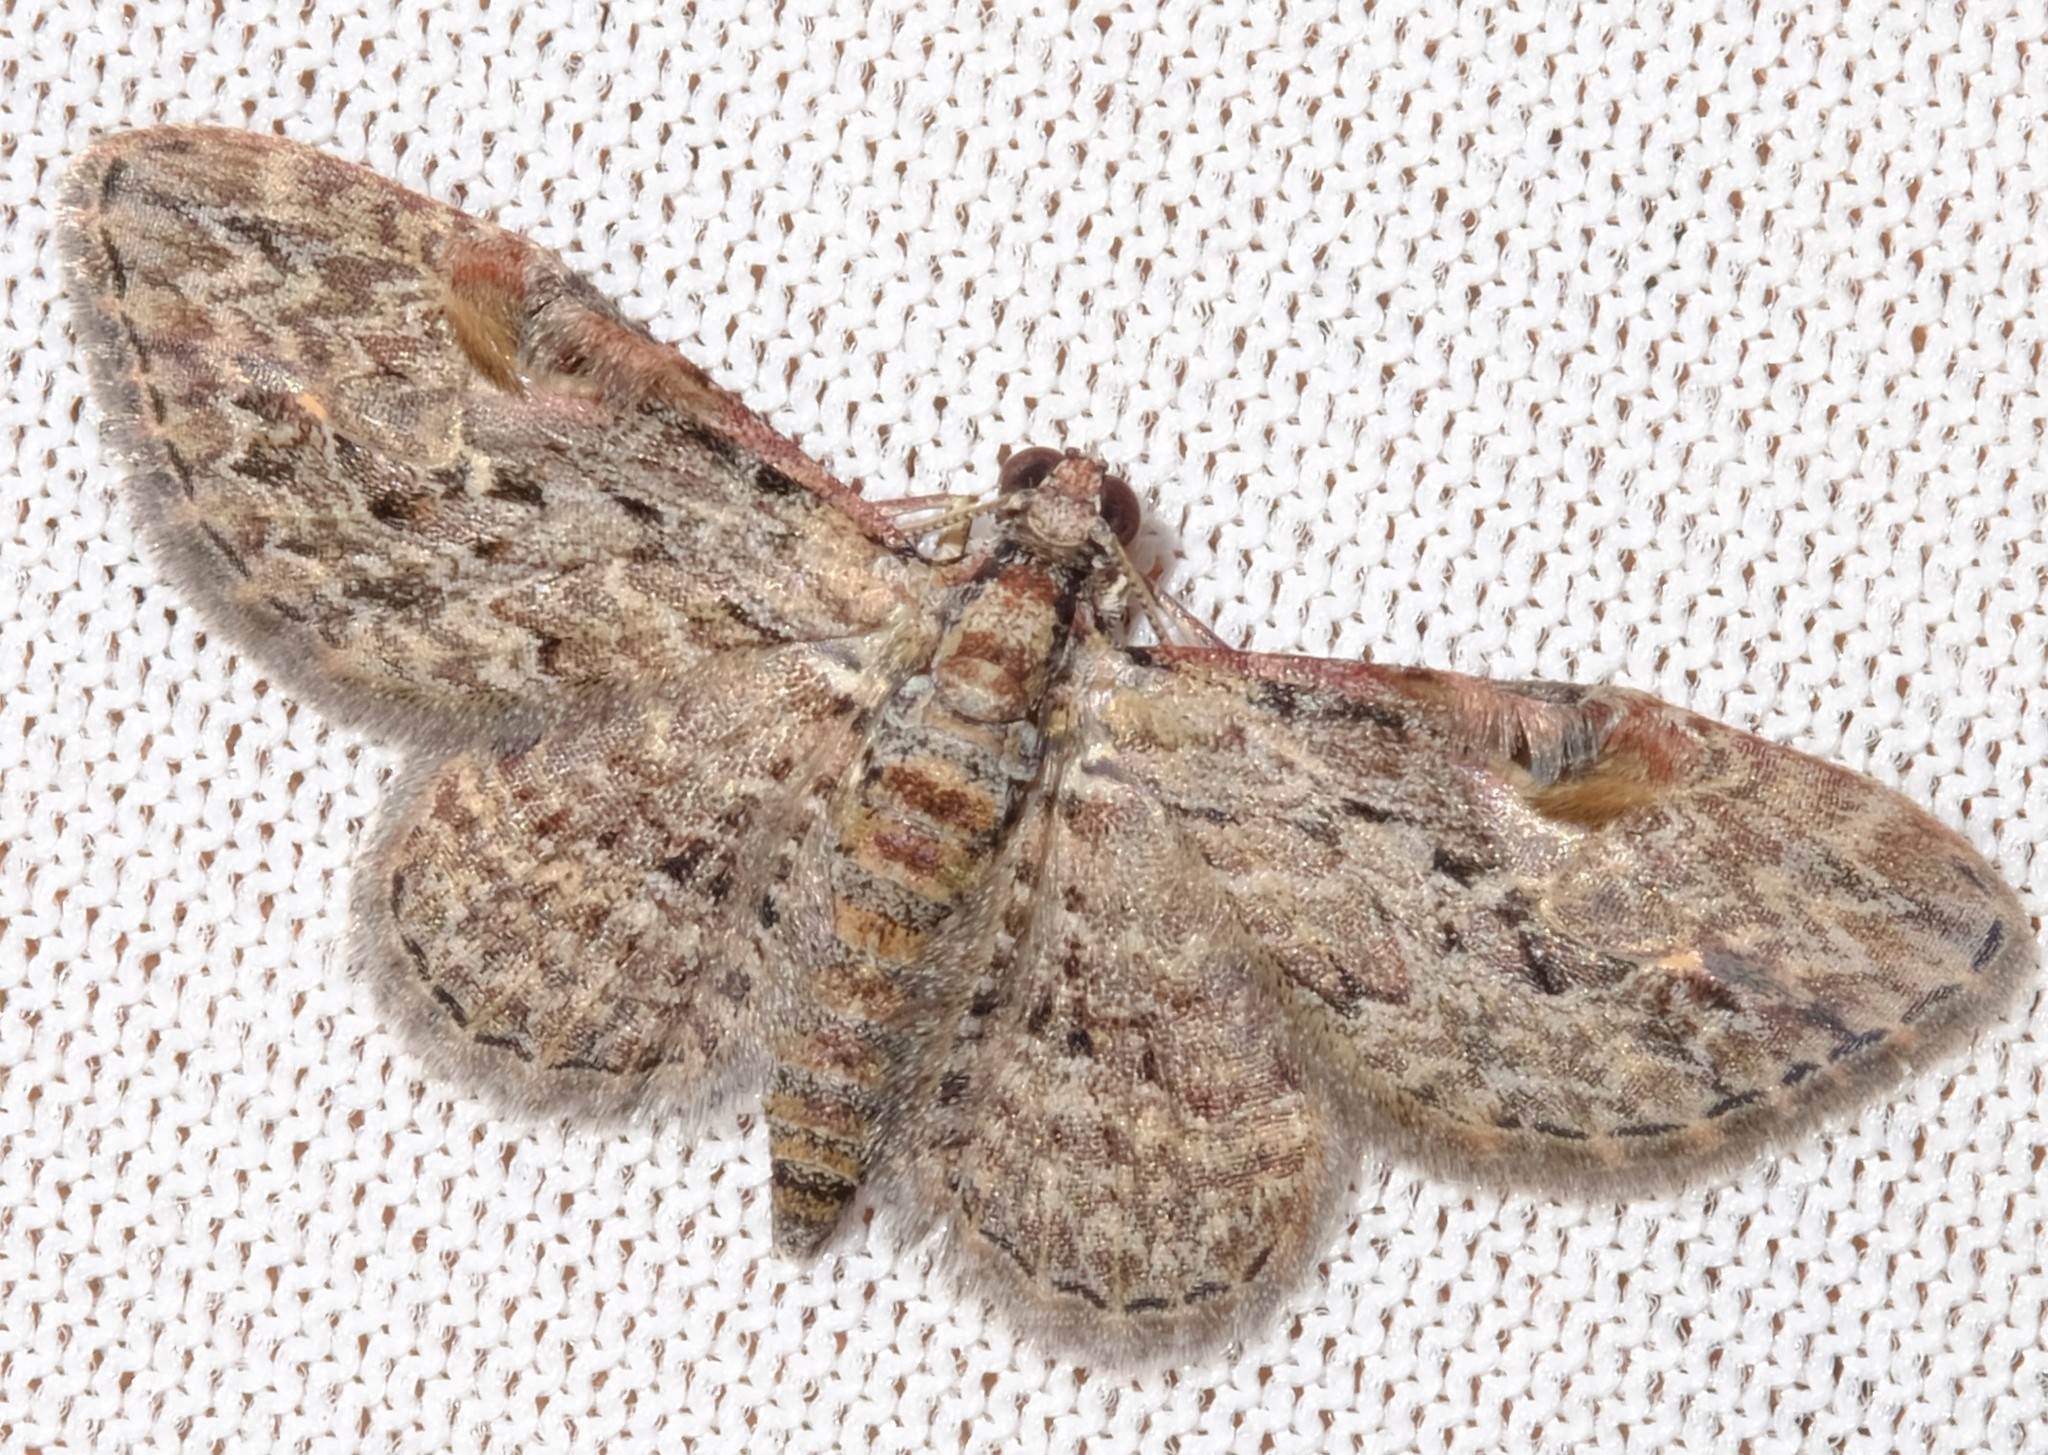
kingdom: Animalia
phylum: Arthropoda
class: Insecta
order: Lepidoptera
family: Geometridae
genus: Chloroclystis
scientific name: Chloroclystis insigillata
